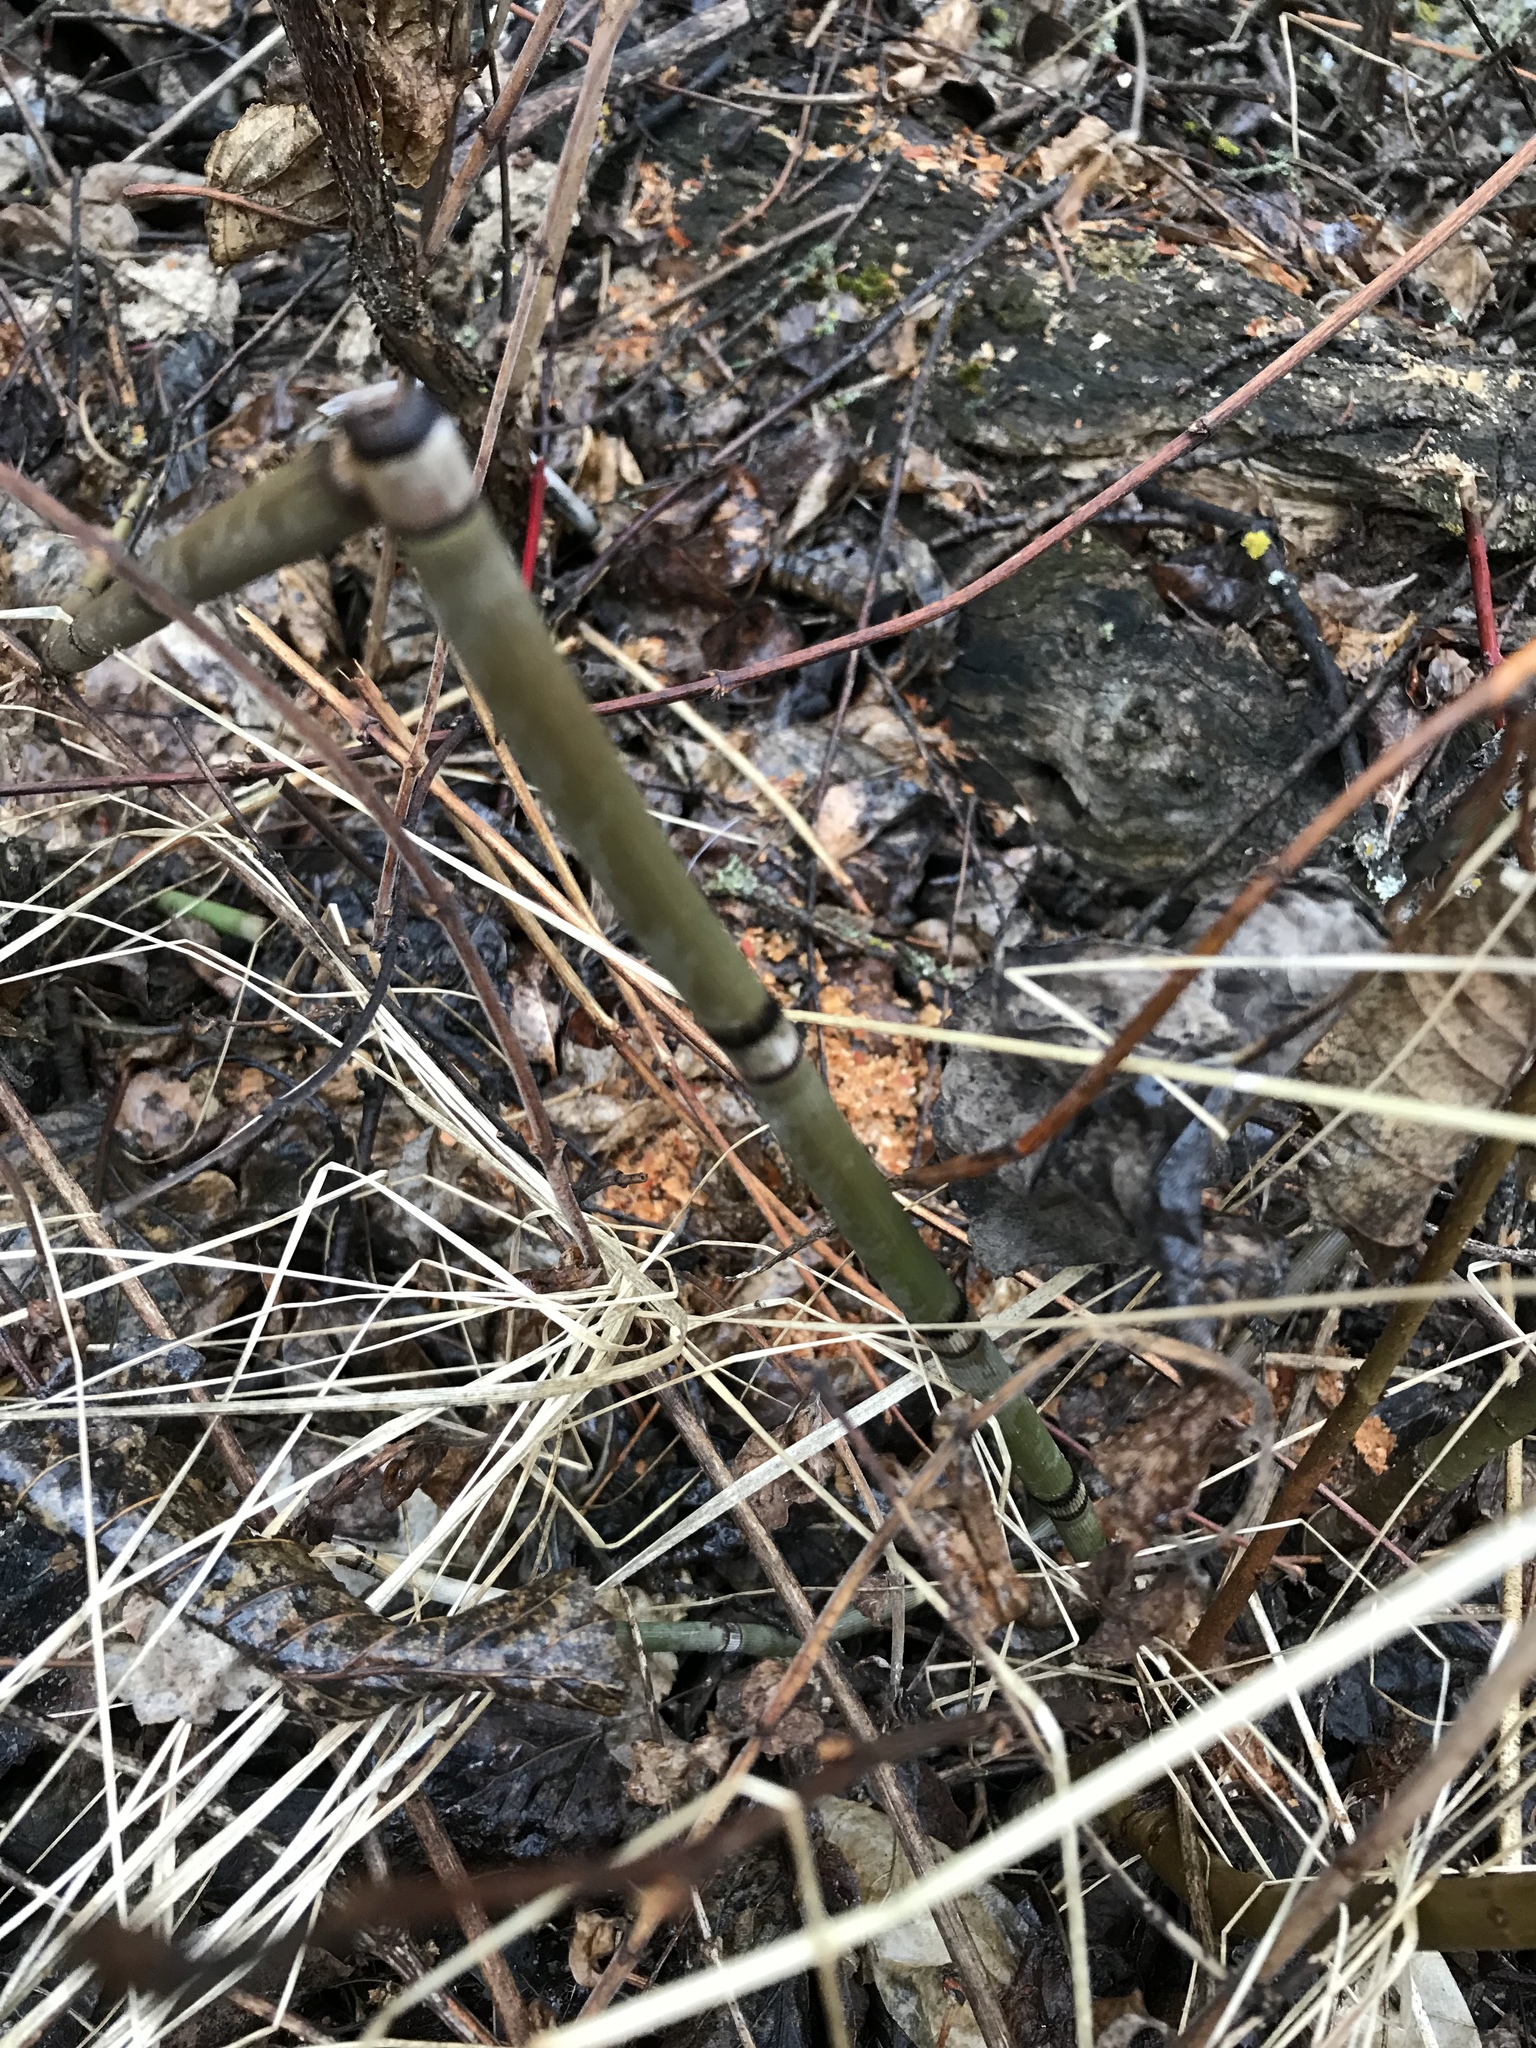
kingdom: Plantae
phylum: Tracheophyta
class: Polypodiopsida
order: Equisetales
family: Equisetaceae
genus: Equisetum
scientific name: Equisetum praealtum
